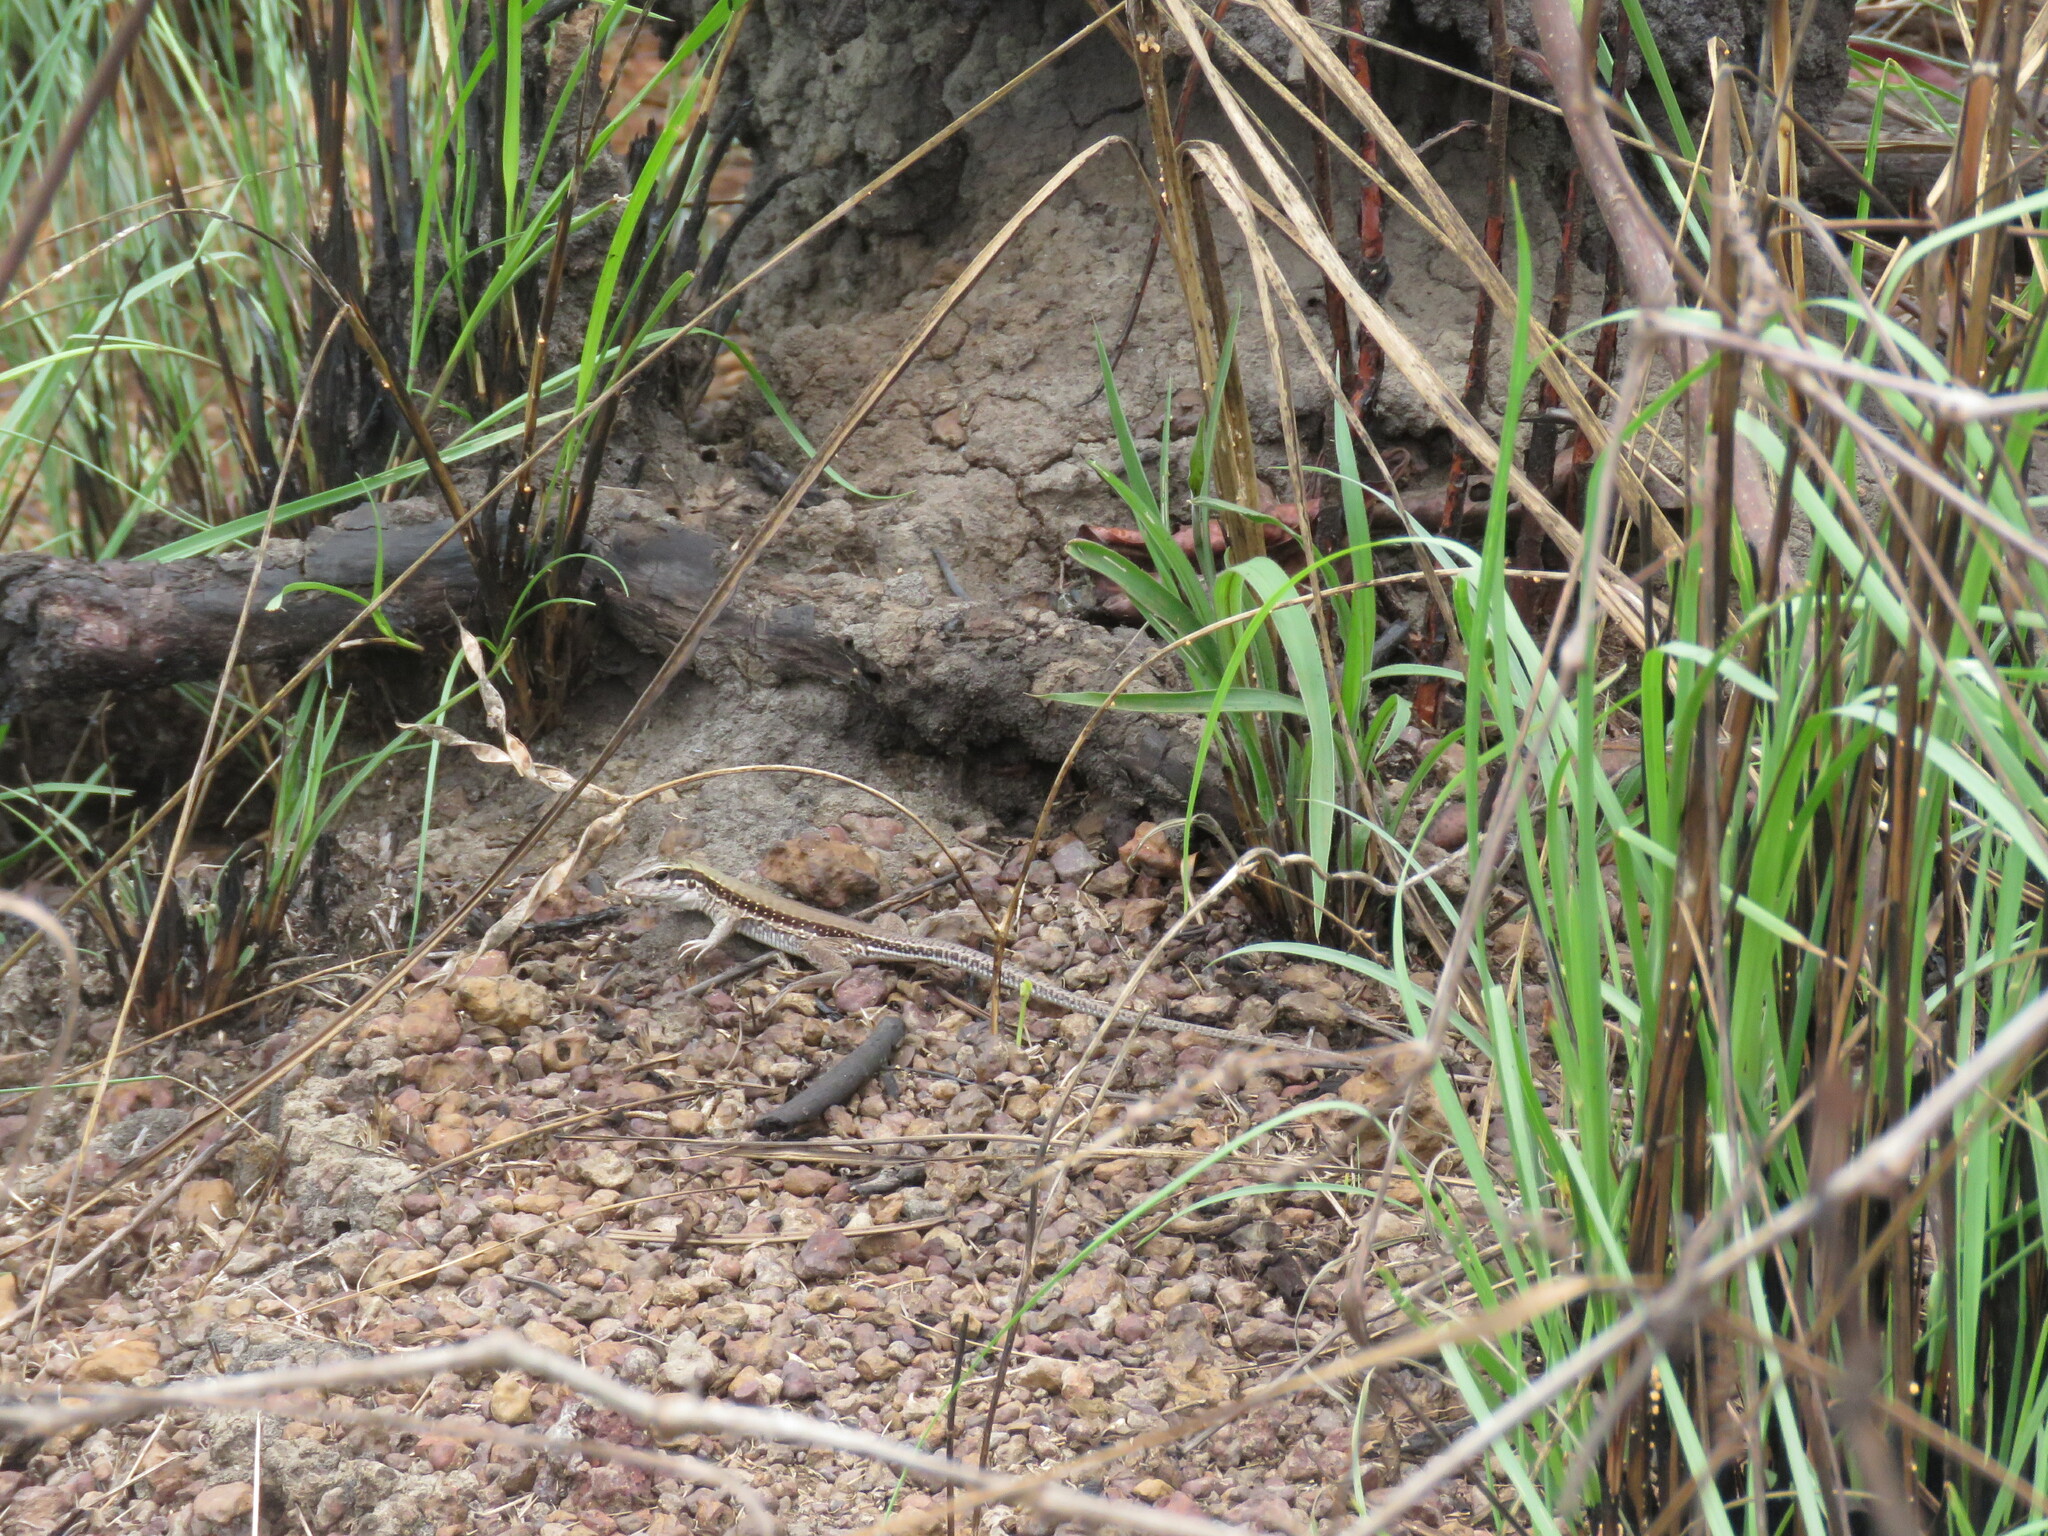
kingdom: Animalia
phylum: Chordata
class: Squamata
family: Teiidae
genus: Ameiva
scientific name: Ameiva ameiva
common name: Giant ameiva
